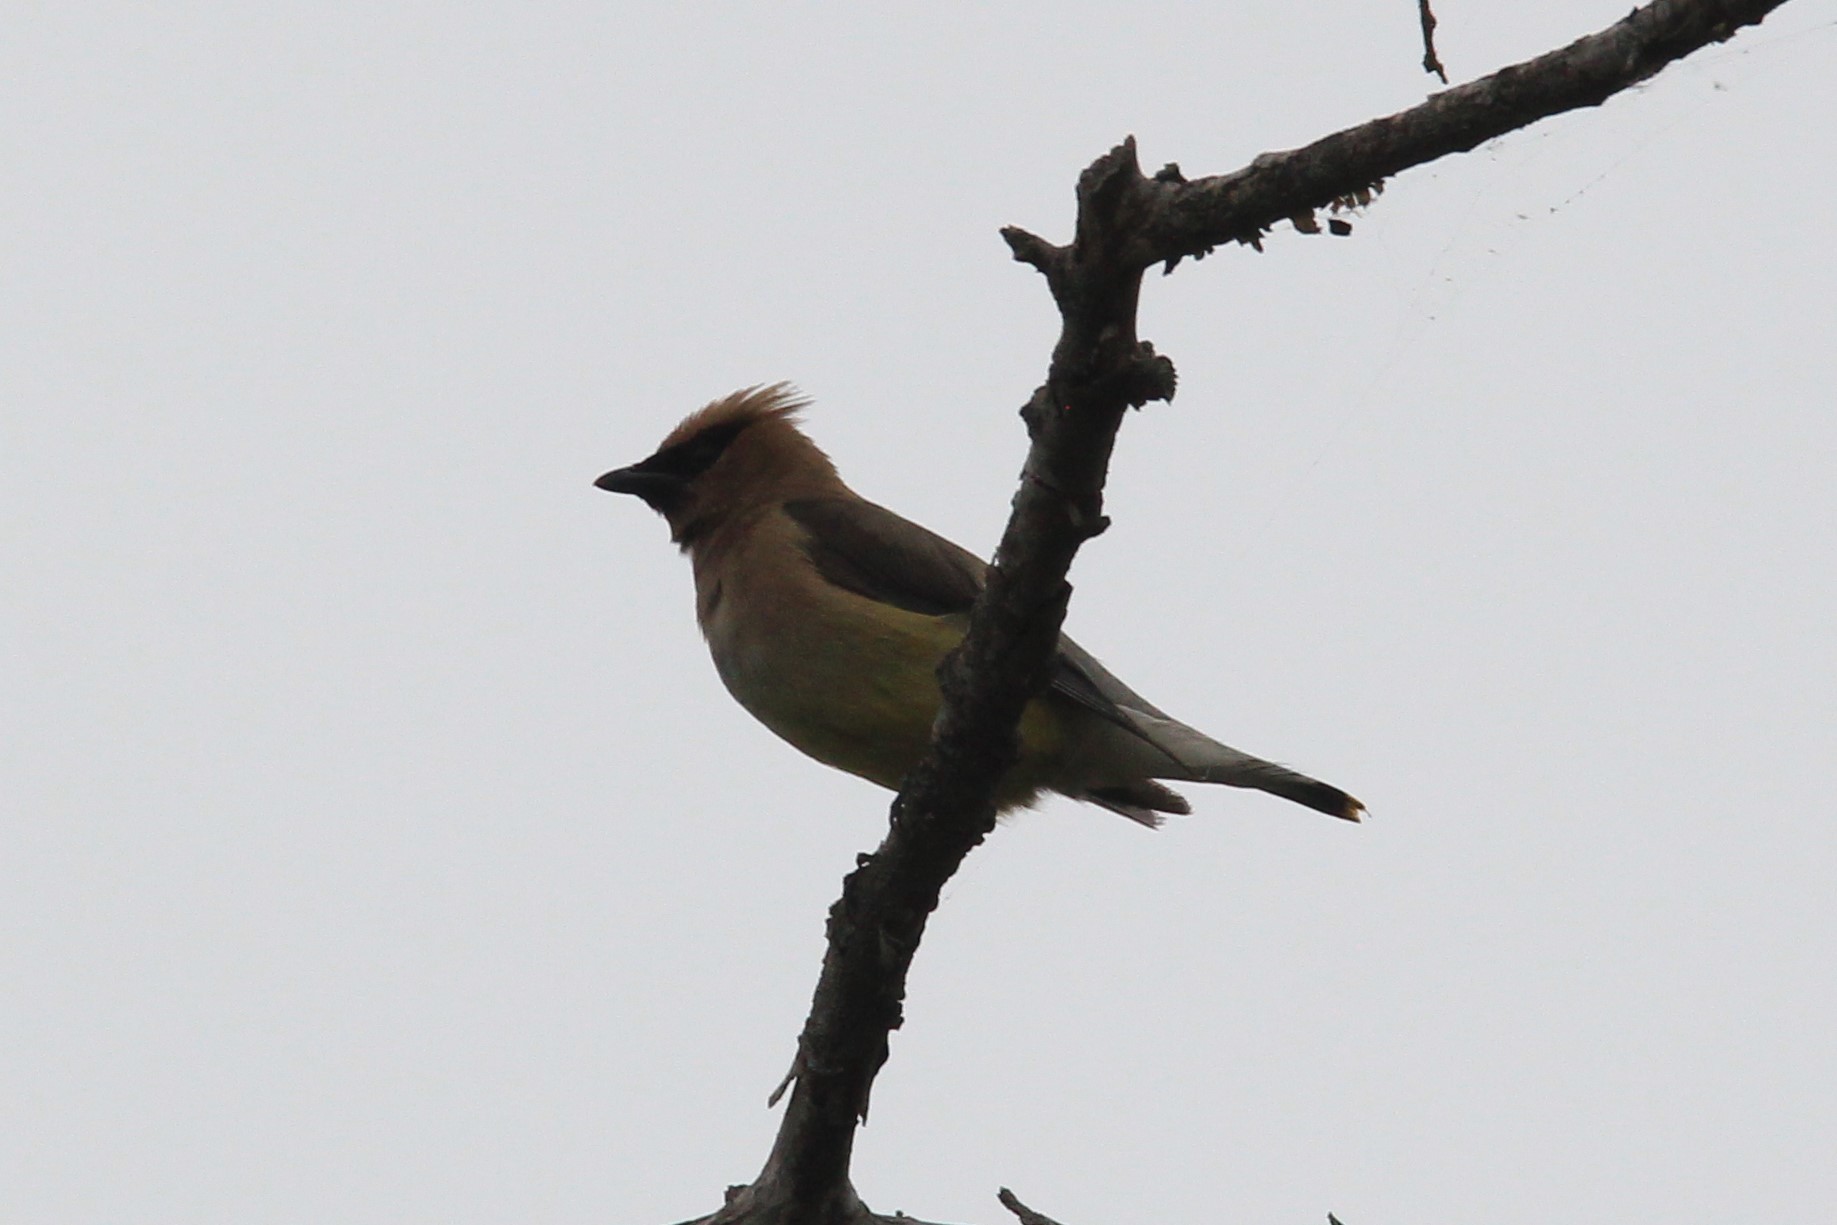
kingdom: Animalia
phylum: Chordata
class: Aves
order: Passeriformes
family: Bombycillidae
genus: Bombycilla
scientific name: Bombycilla cedrorum
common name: Cedar waxwing
